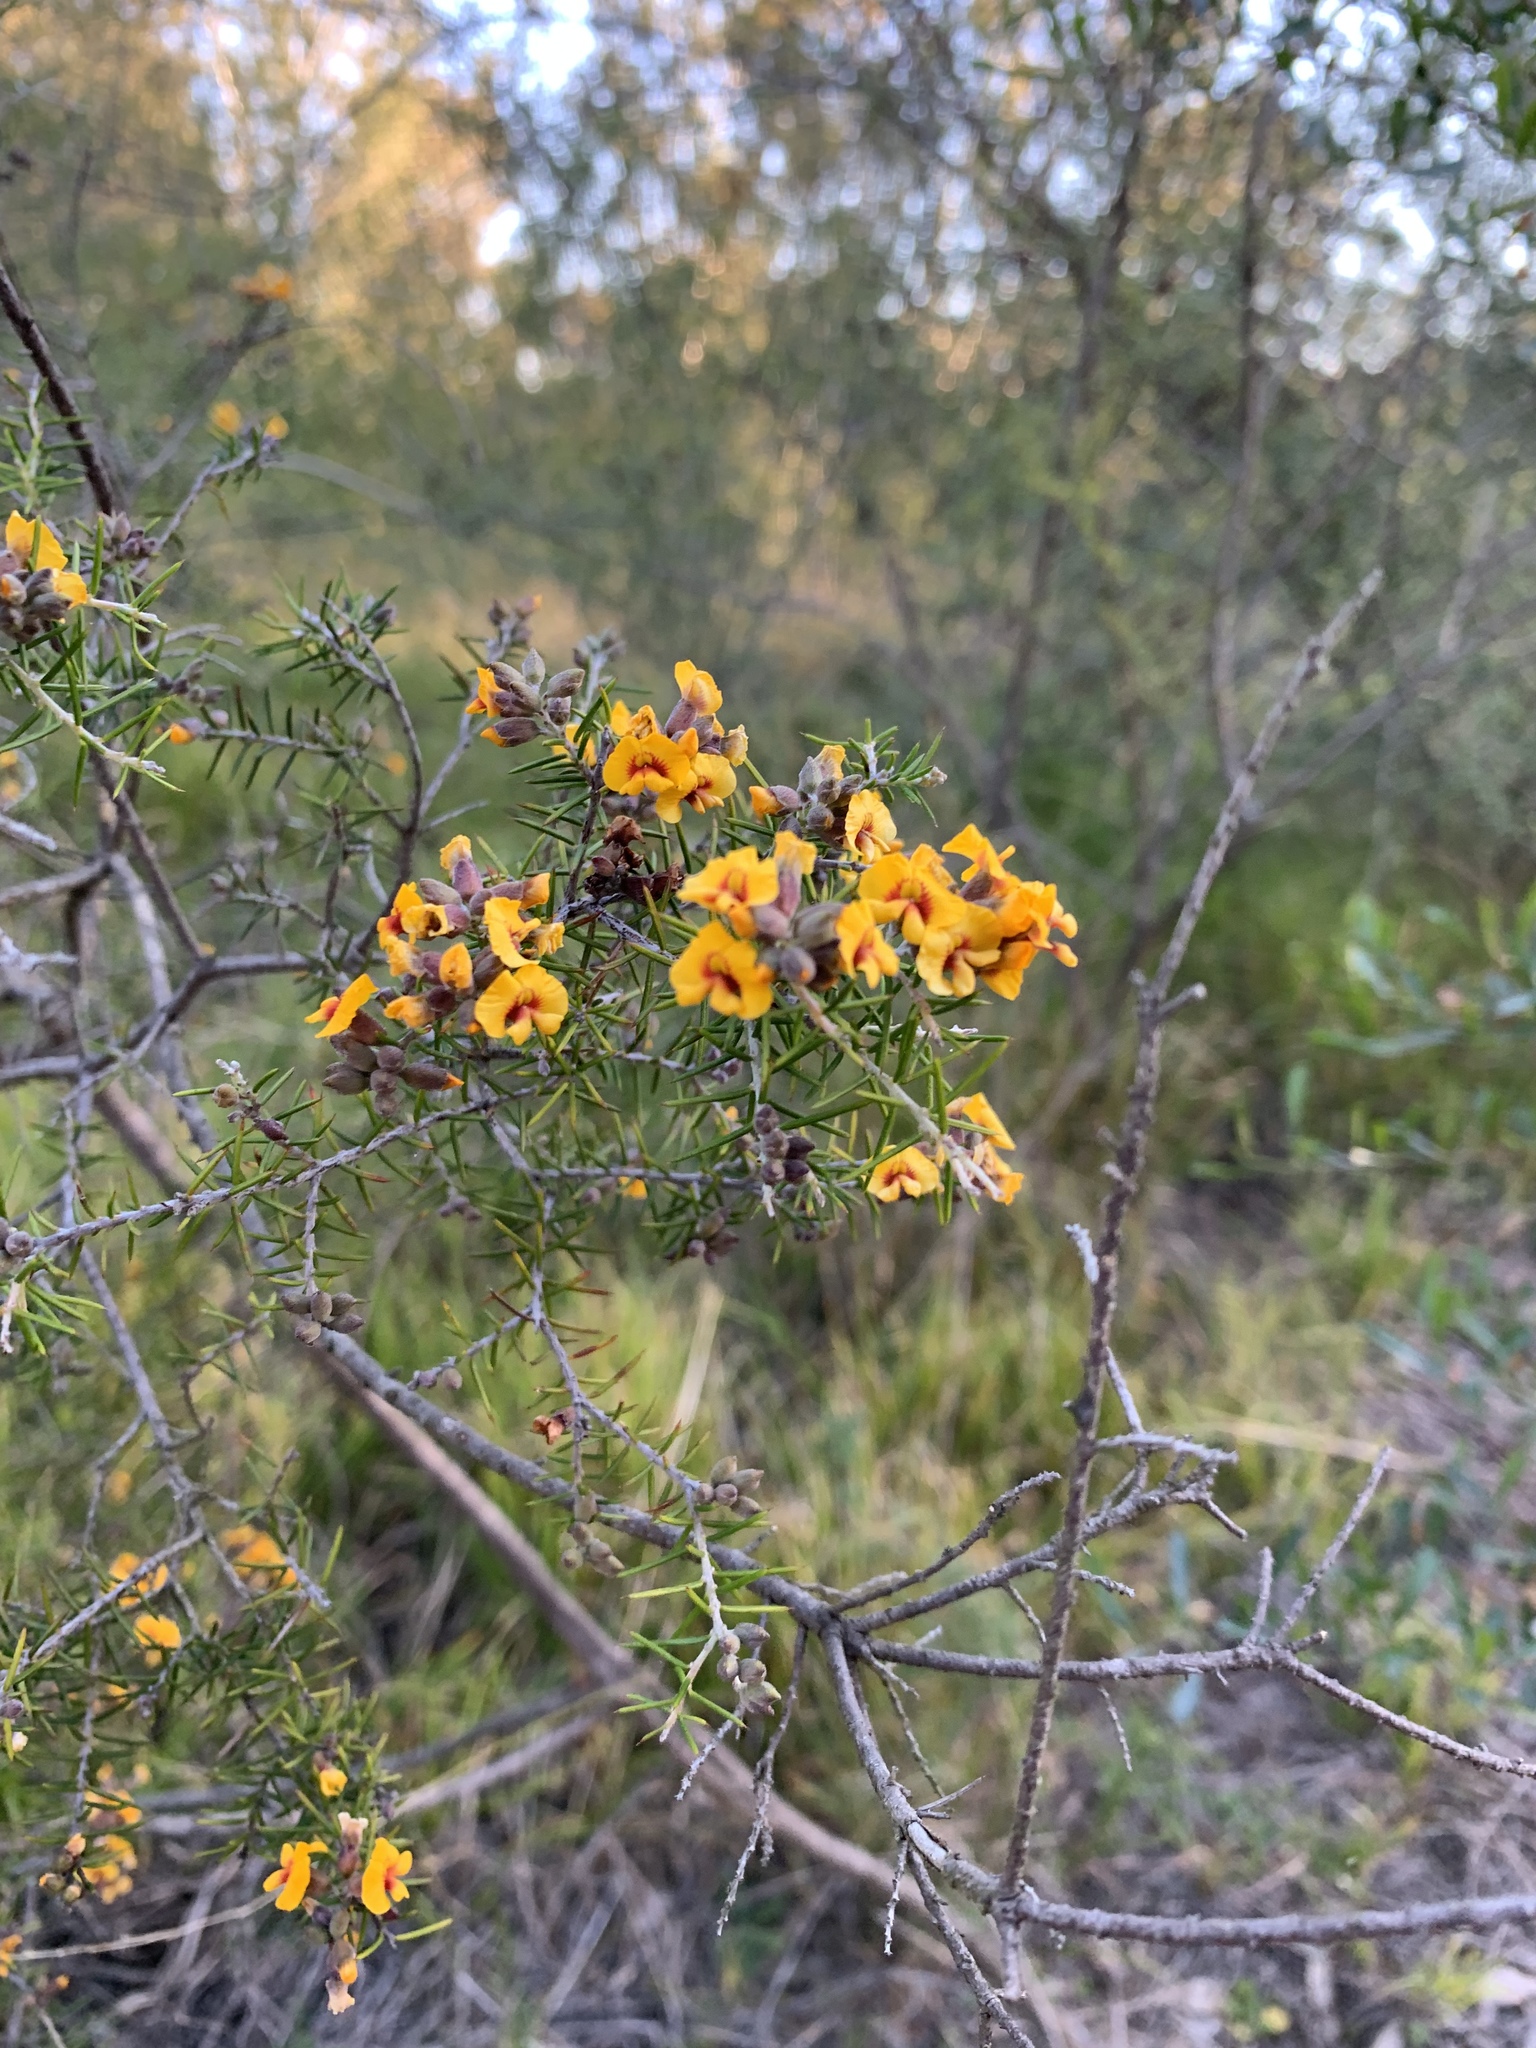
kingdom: Plantae
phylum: Tracheophyta
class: Magnoliopsida
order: Fabales
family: Fabaceae
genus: Dillwynia
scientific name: Dillwynia sieberi
